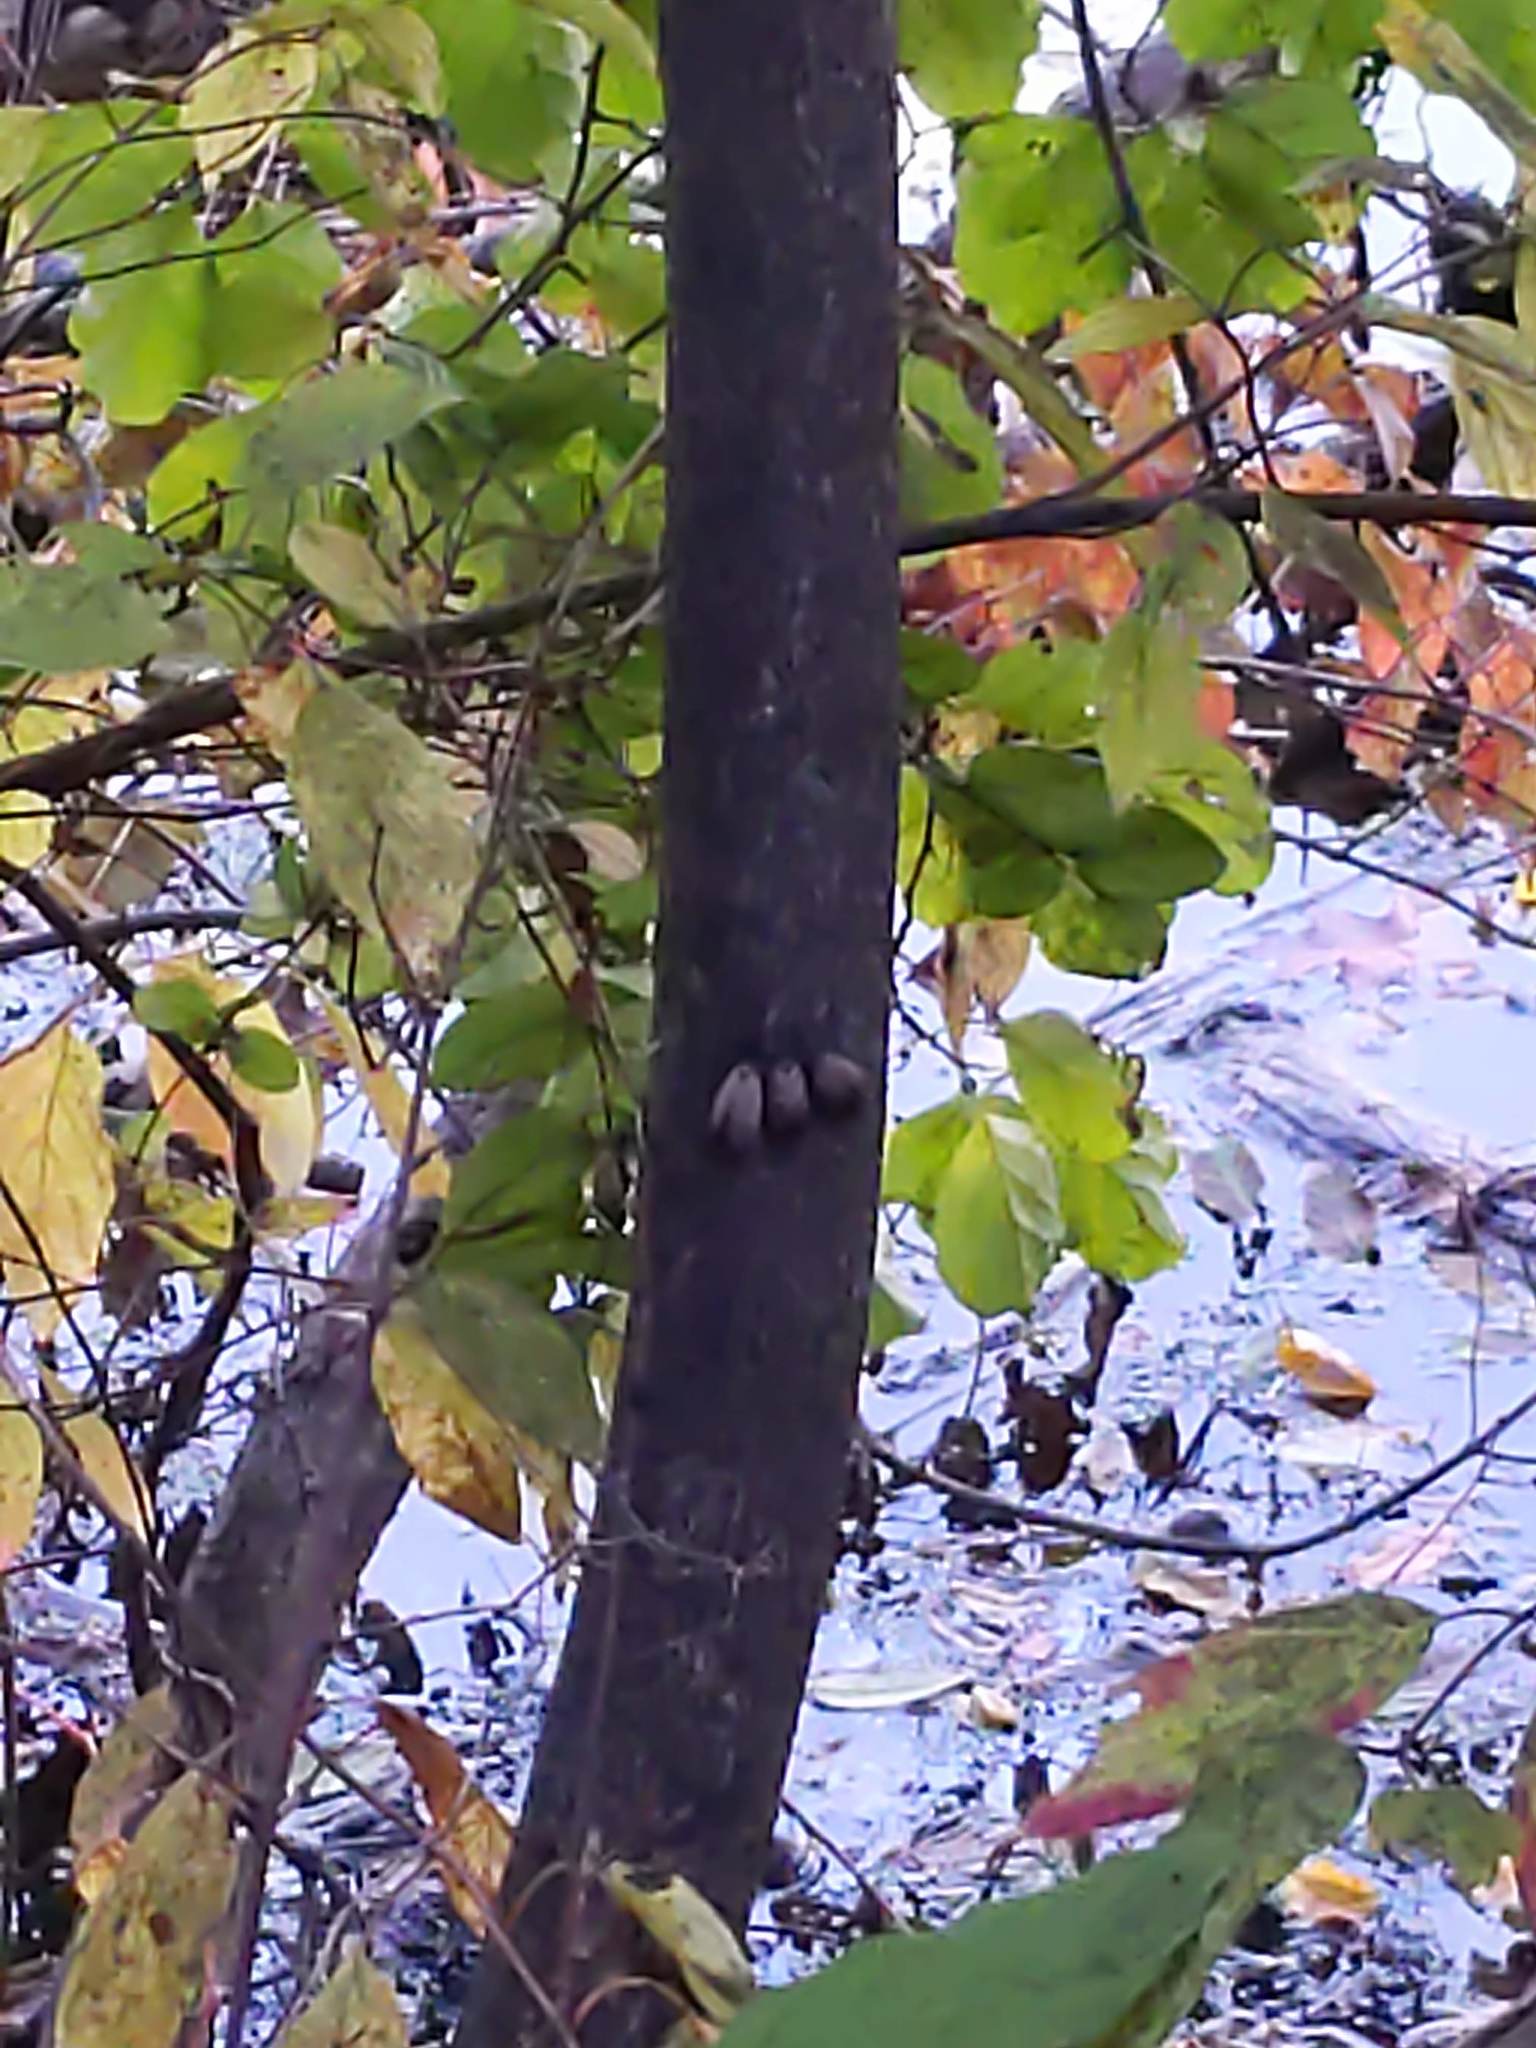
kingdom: Animalia
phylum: Arthropoda
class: Insecta
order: Hemiptera
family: Fulgoridae
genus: Lycorma
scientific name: Lycorma delicatula
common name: Spotted lanternfly
